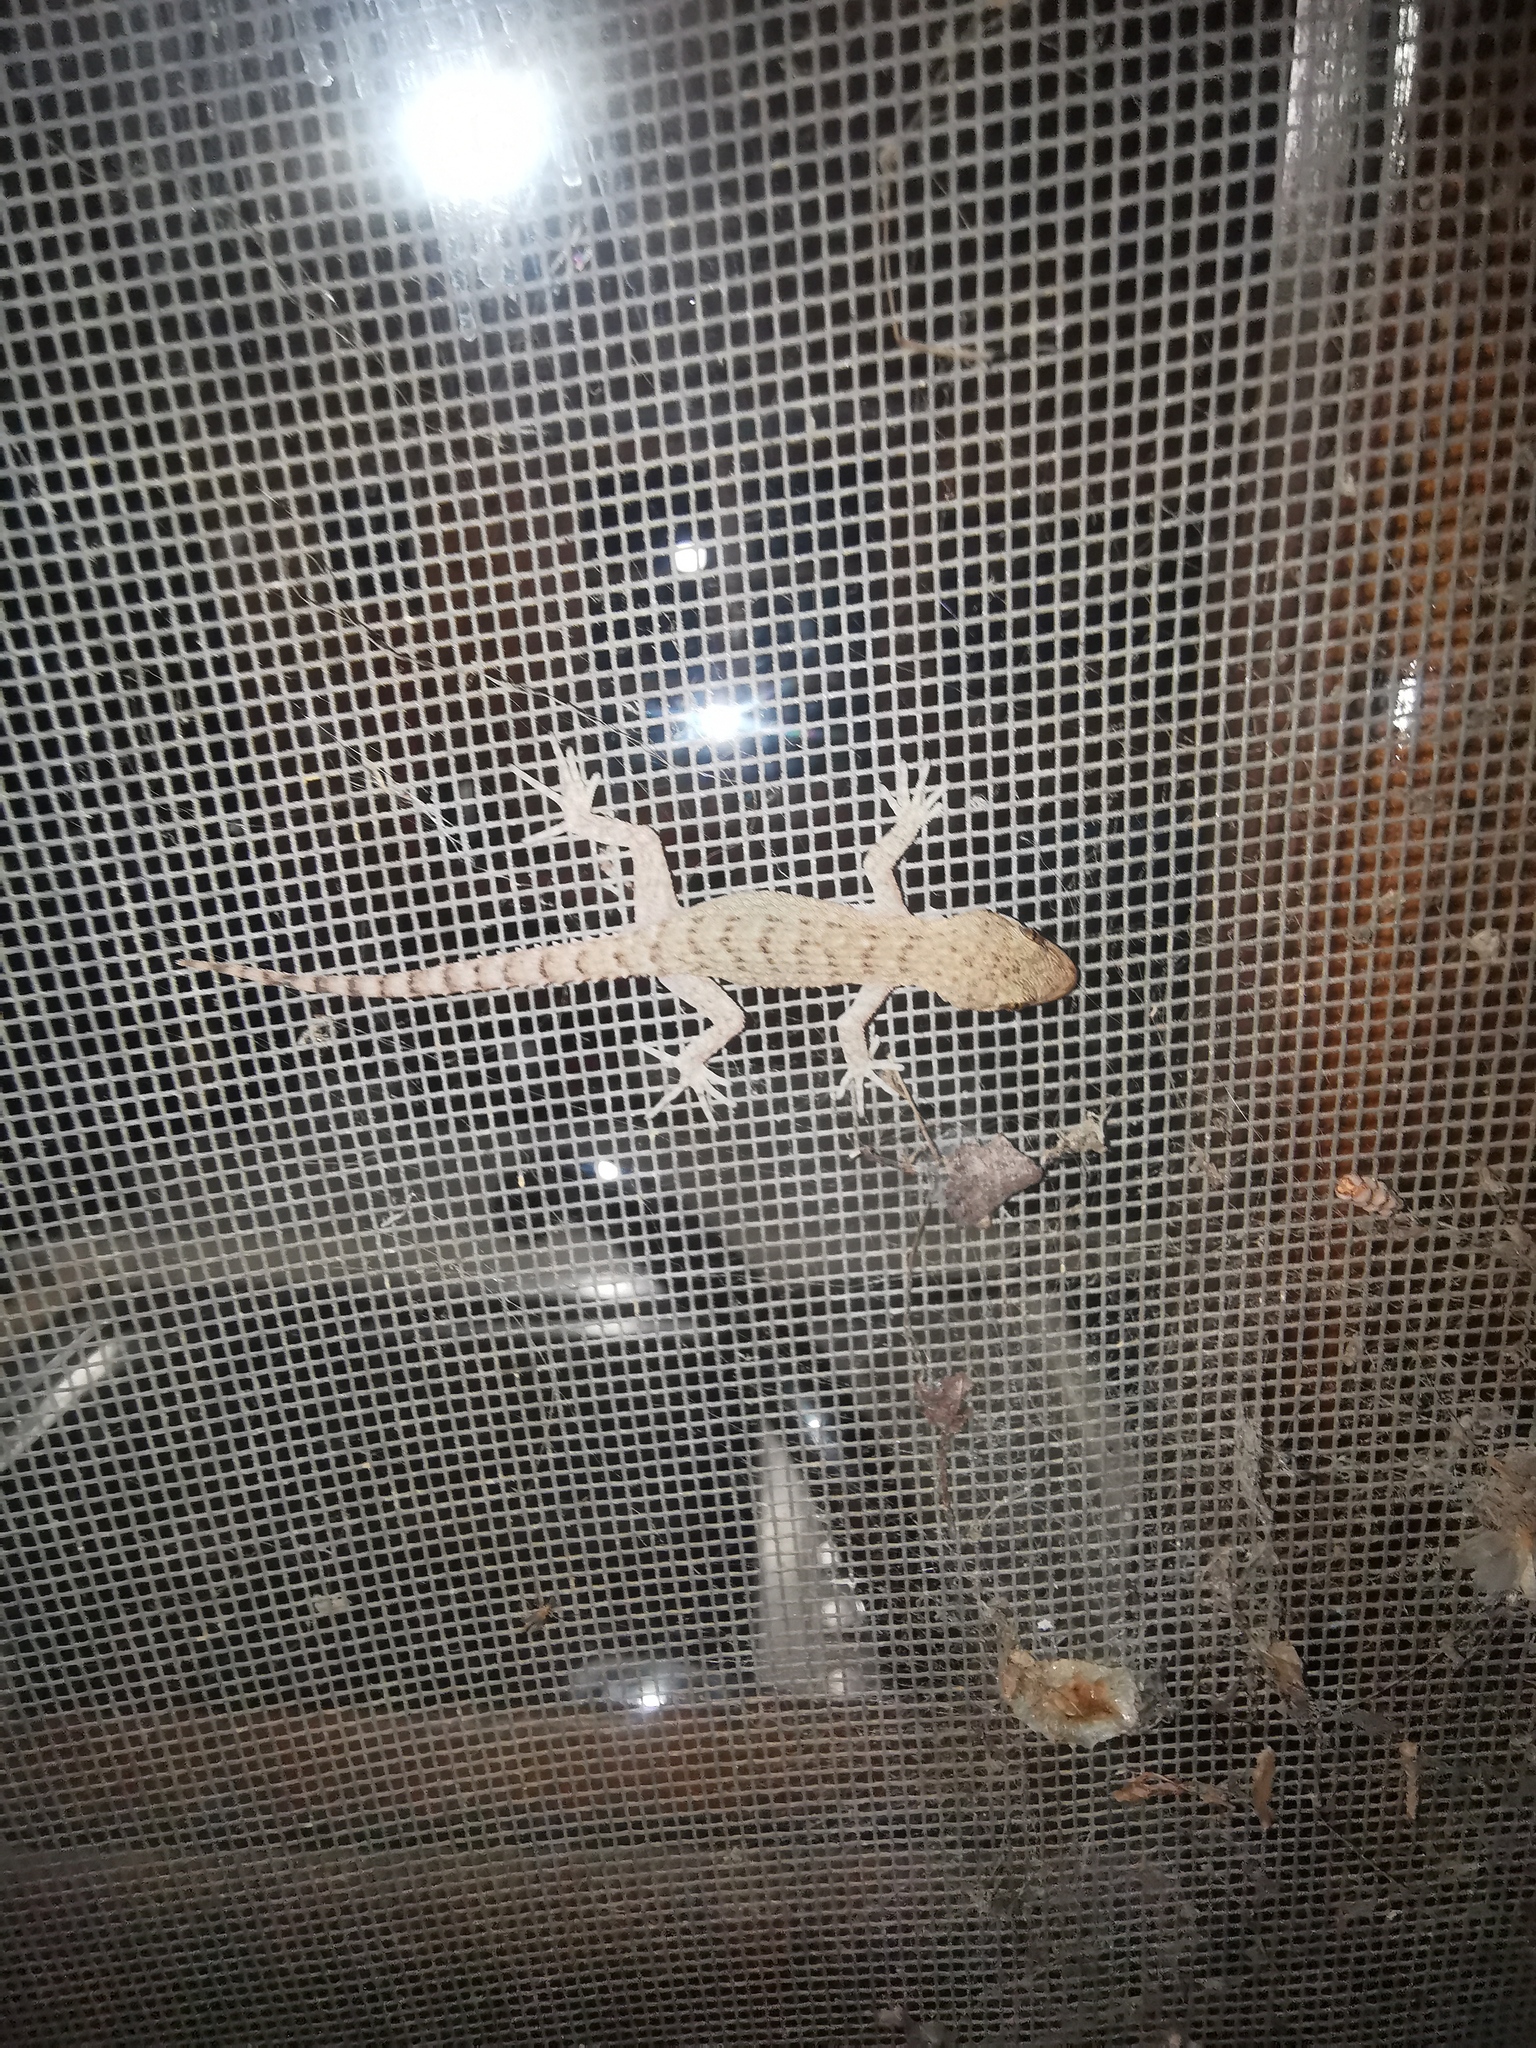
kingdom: Animalia
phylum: Chordata
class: Squamata
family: Gekkonidae
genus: Mediodactylus
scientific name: Mediodactylus kotschyi
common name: Kotschy's gecko
